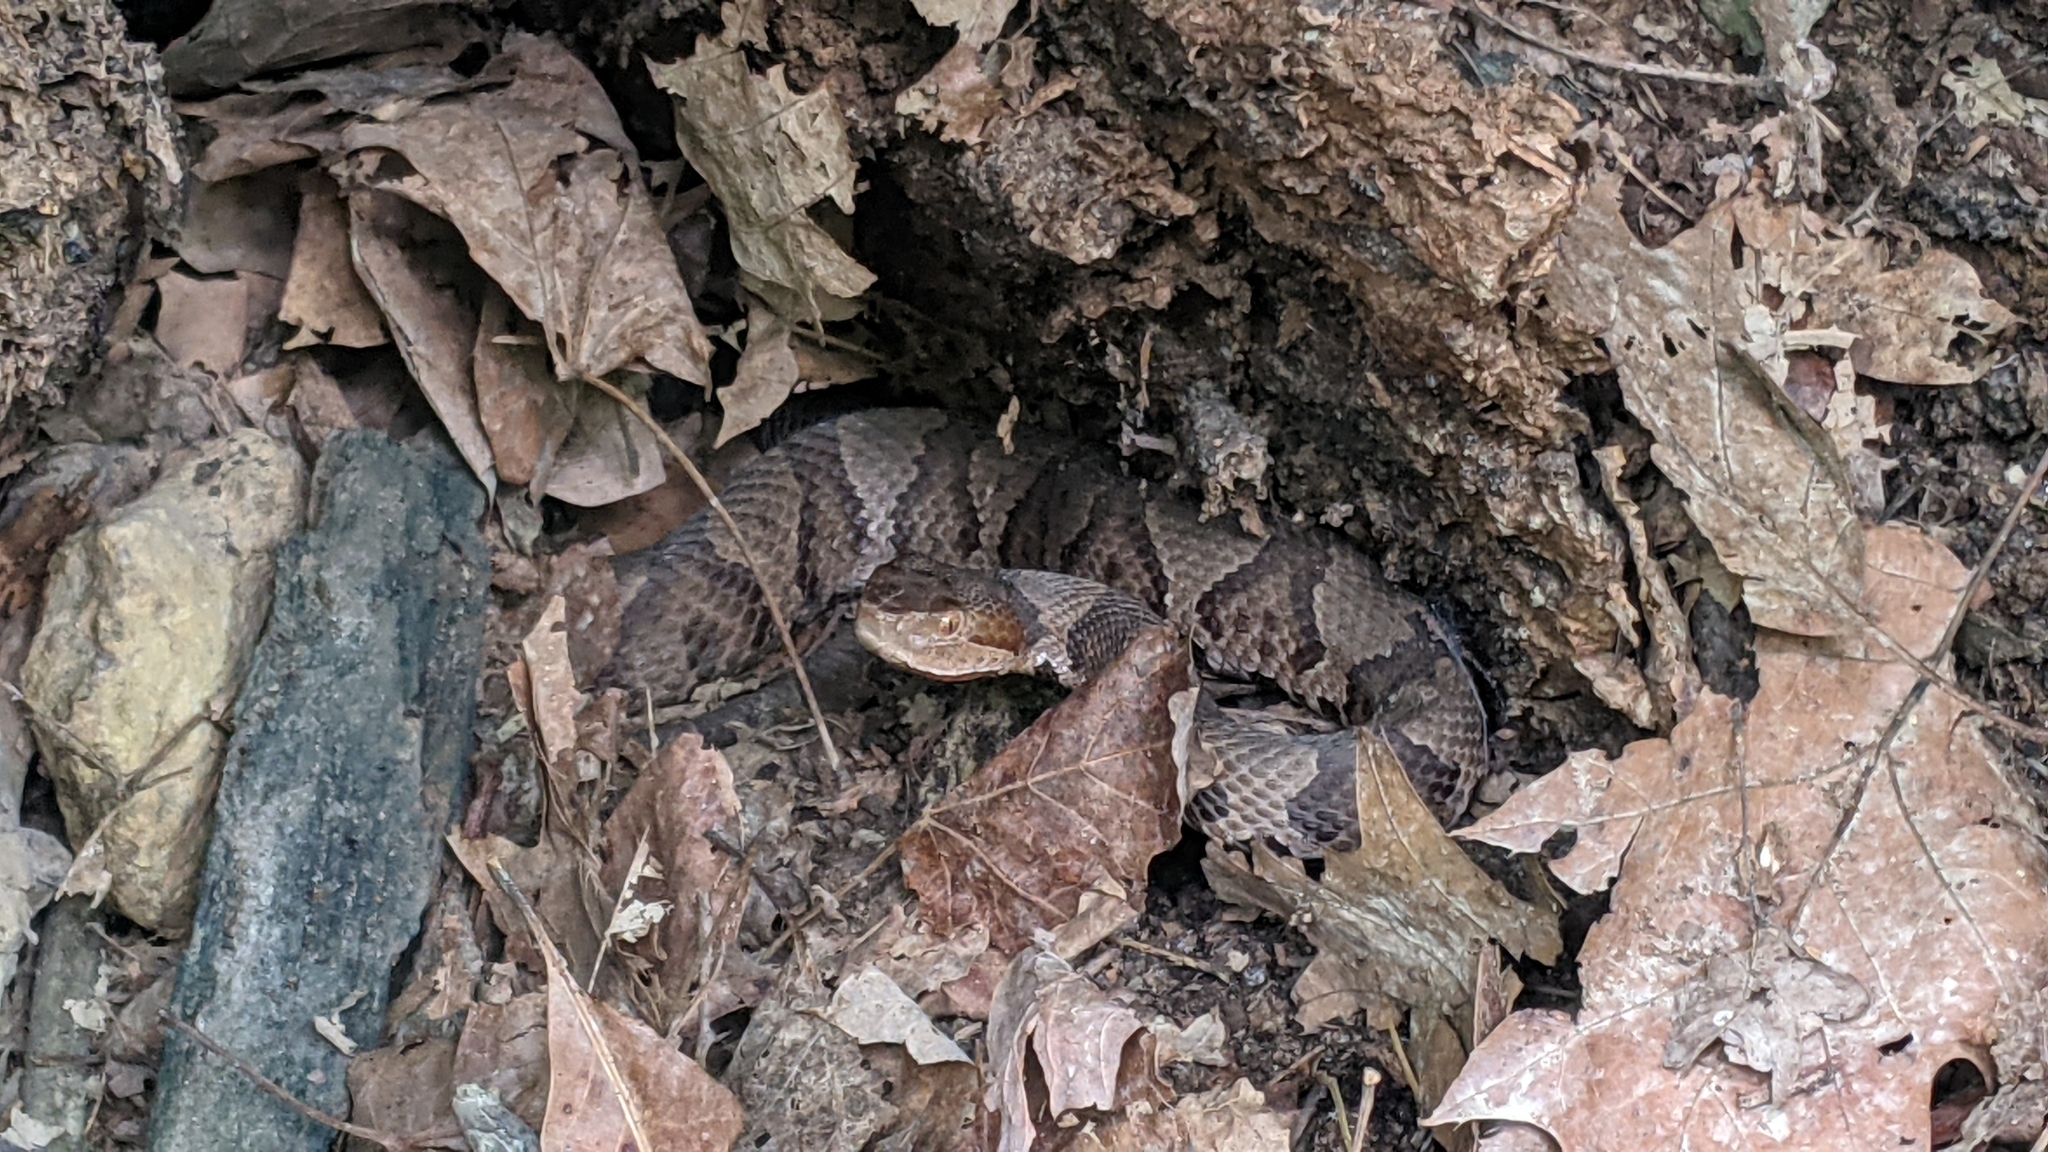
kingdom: Animalia
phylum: Chordata
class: Squamata
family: Viperidae
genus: Agkistrodon
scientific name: Agkistrodon contortrix
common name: Northern copperhead
